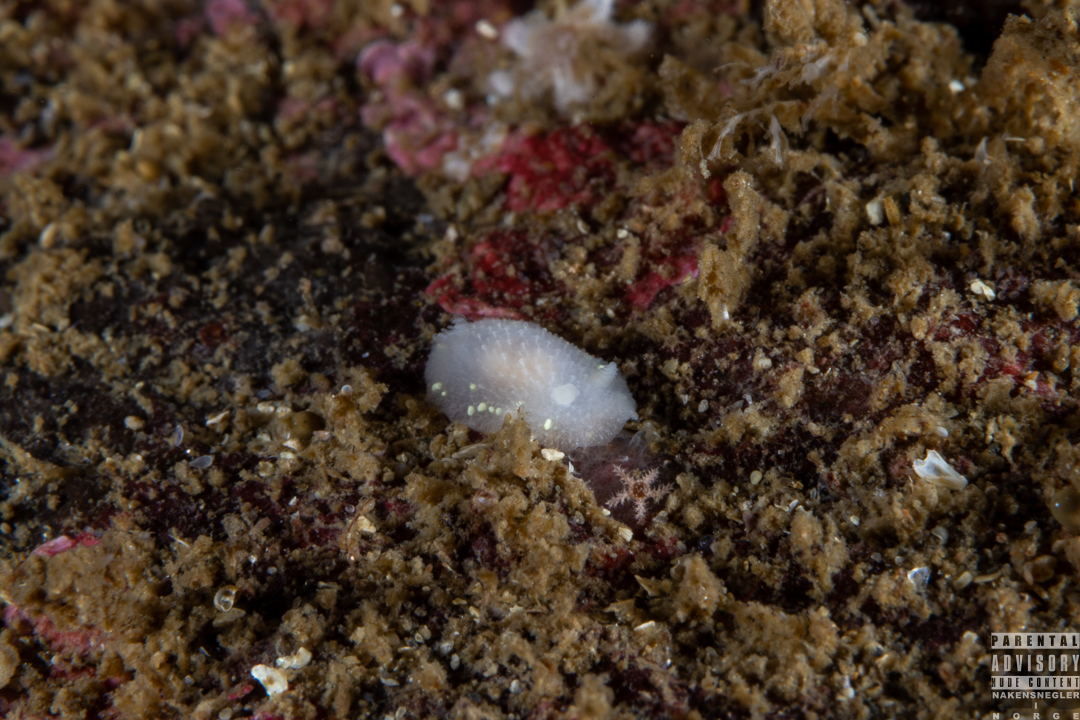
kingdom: Animalia
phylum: Mollusca
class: Gastropoda
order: Nudibranchia
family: Cadlinidae
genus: Cadlina
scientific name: Cadlina laevis
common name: White atlantic cadlina
